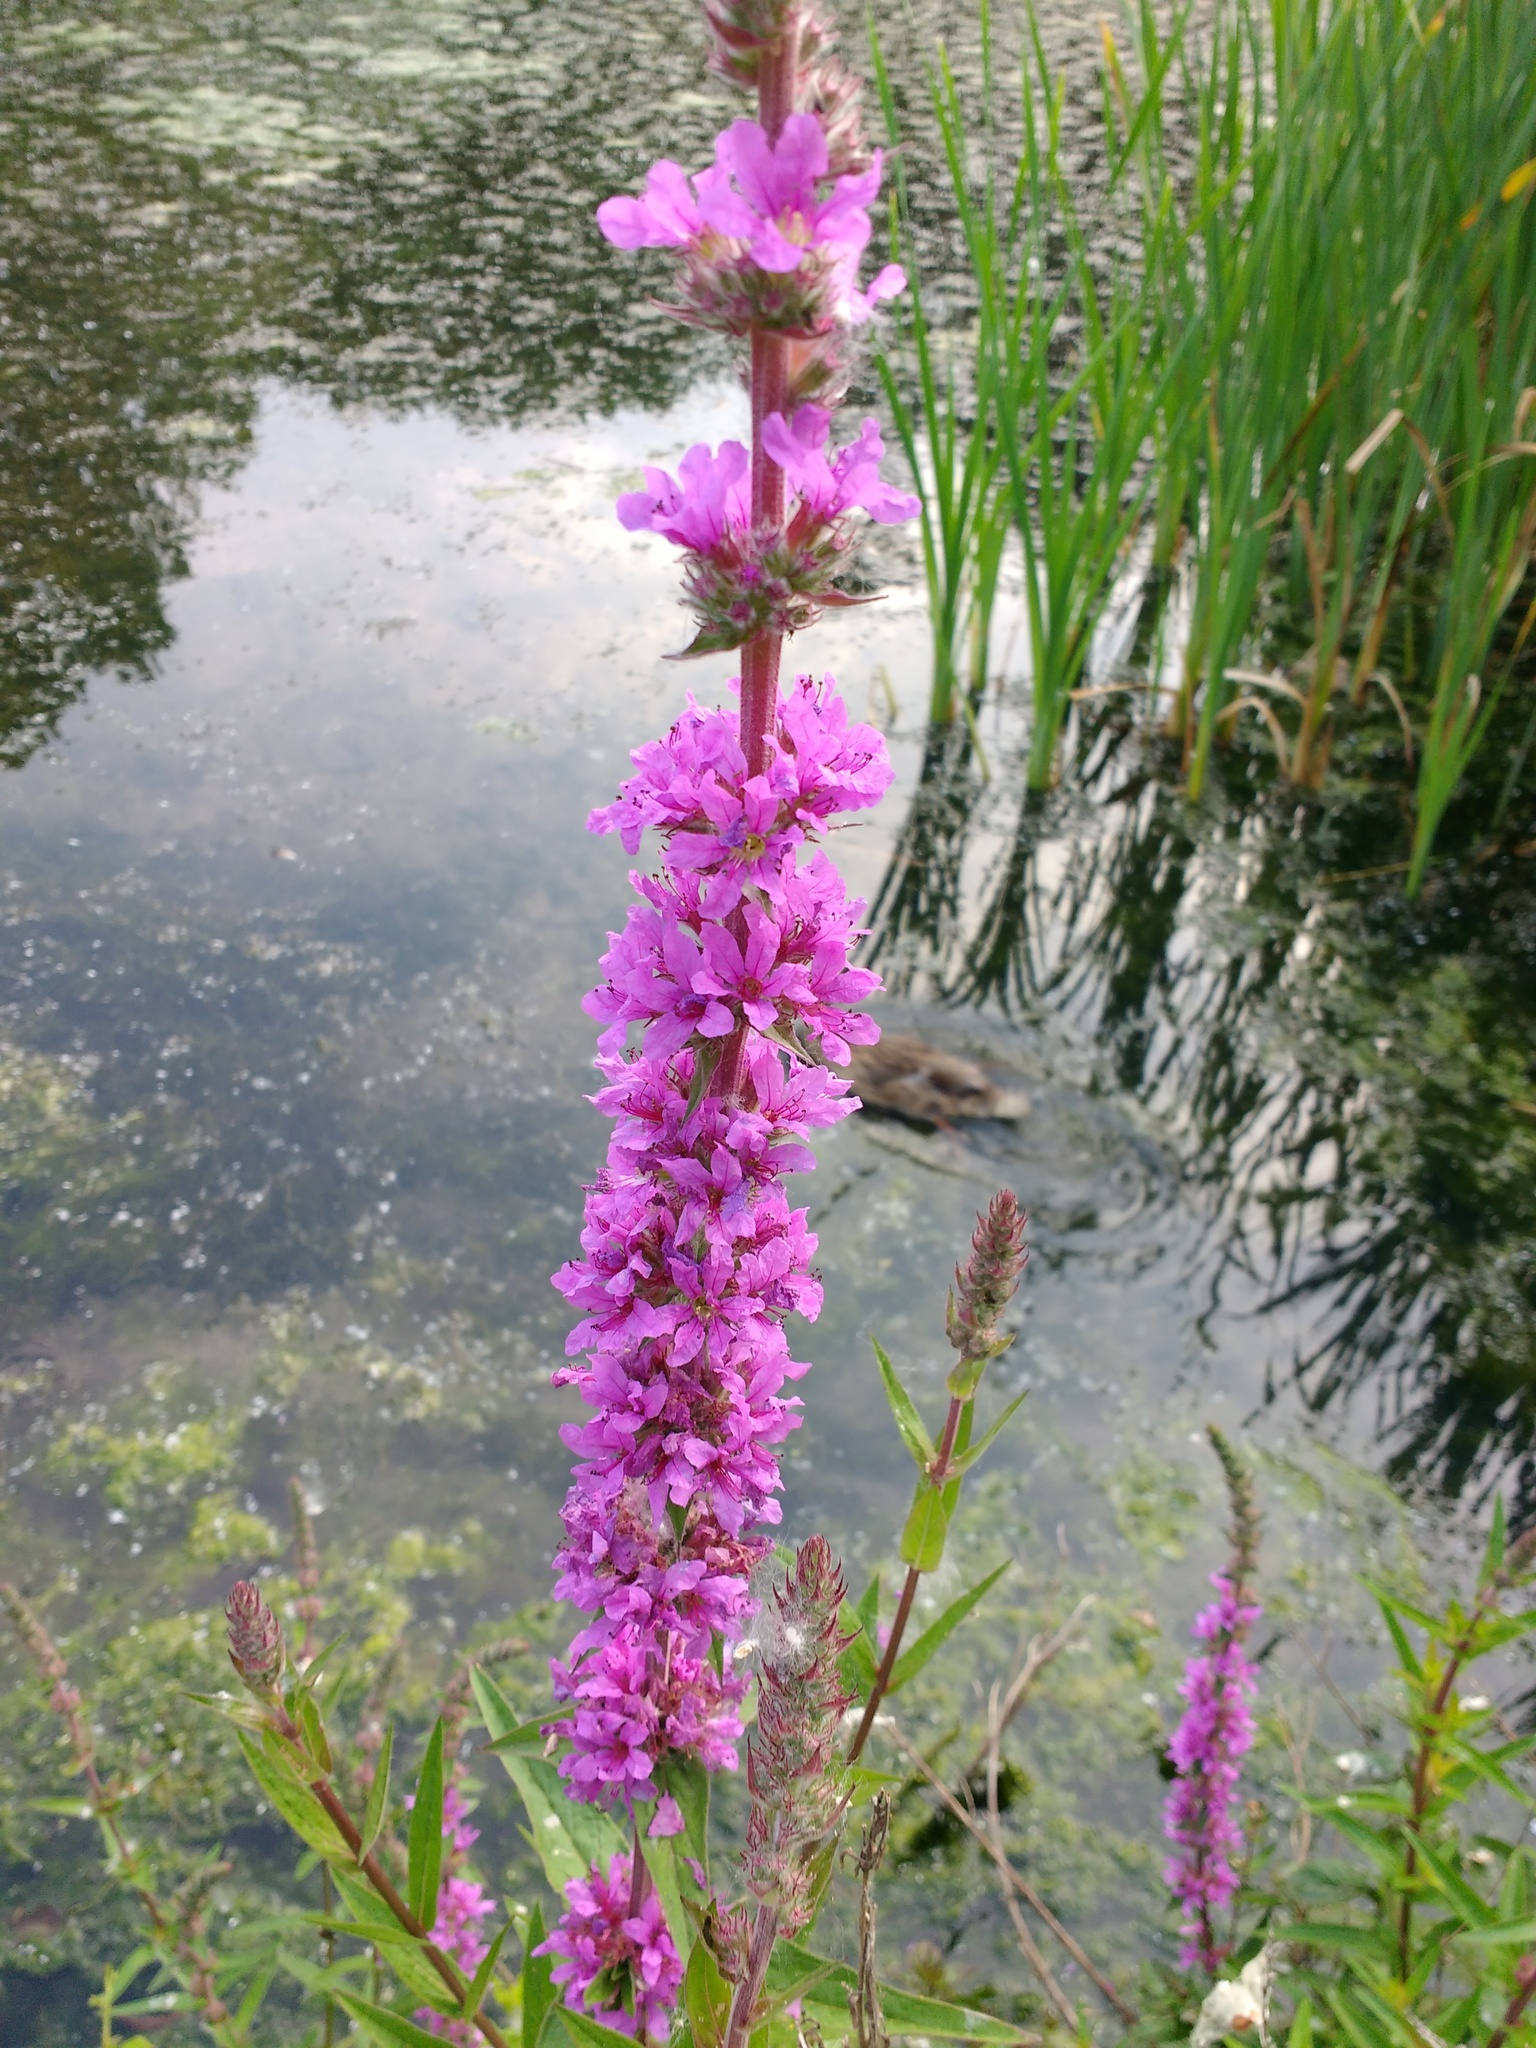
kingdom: Plantae
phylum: Tracheophyta
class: Magnoliopsida
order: Myrtales
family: Lythraceae
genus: Lythrum
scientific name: Lythrum salicaria
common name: Purple loosestrife
